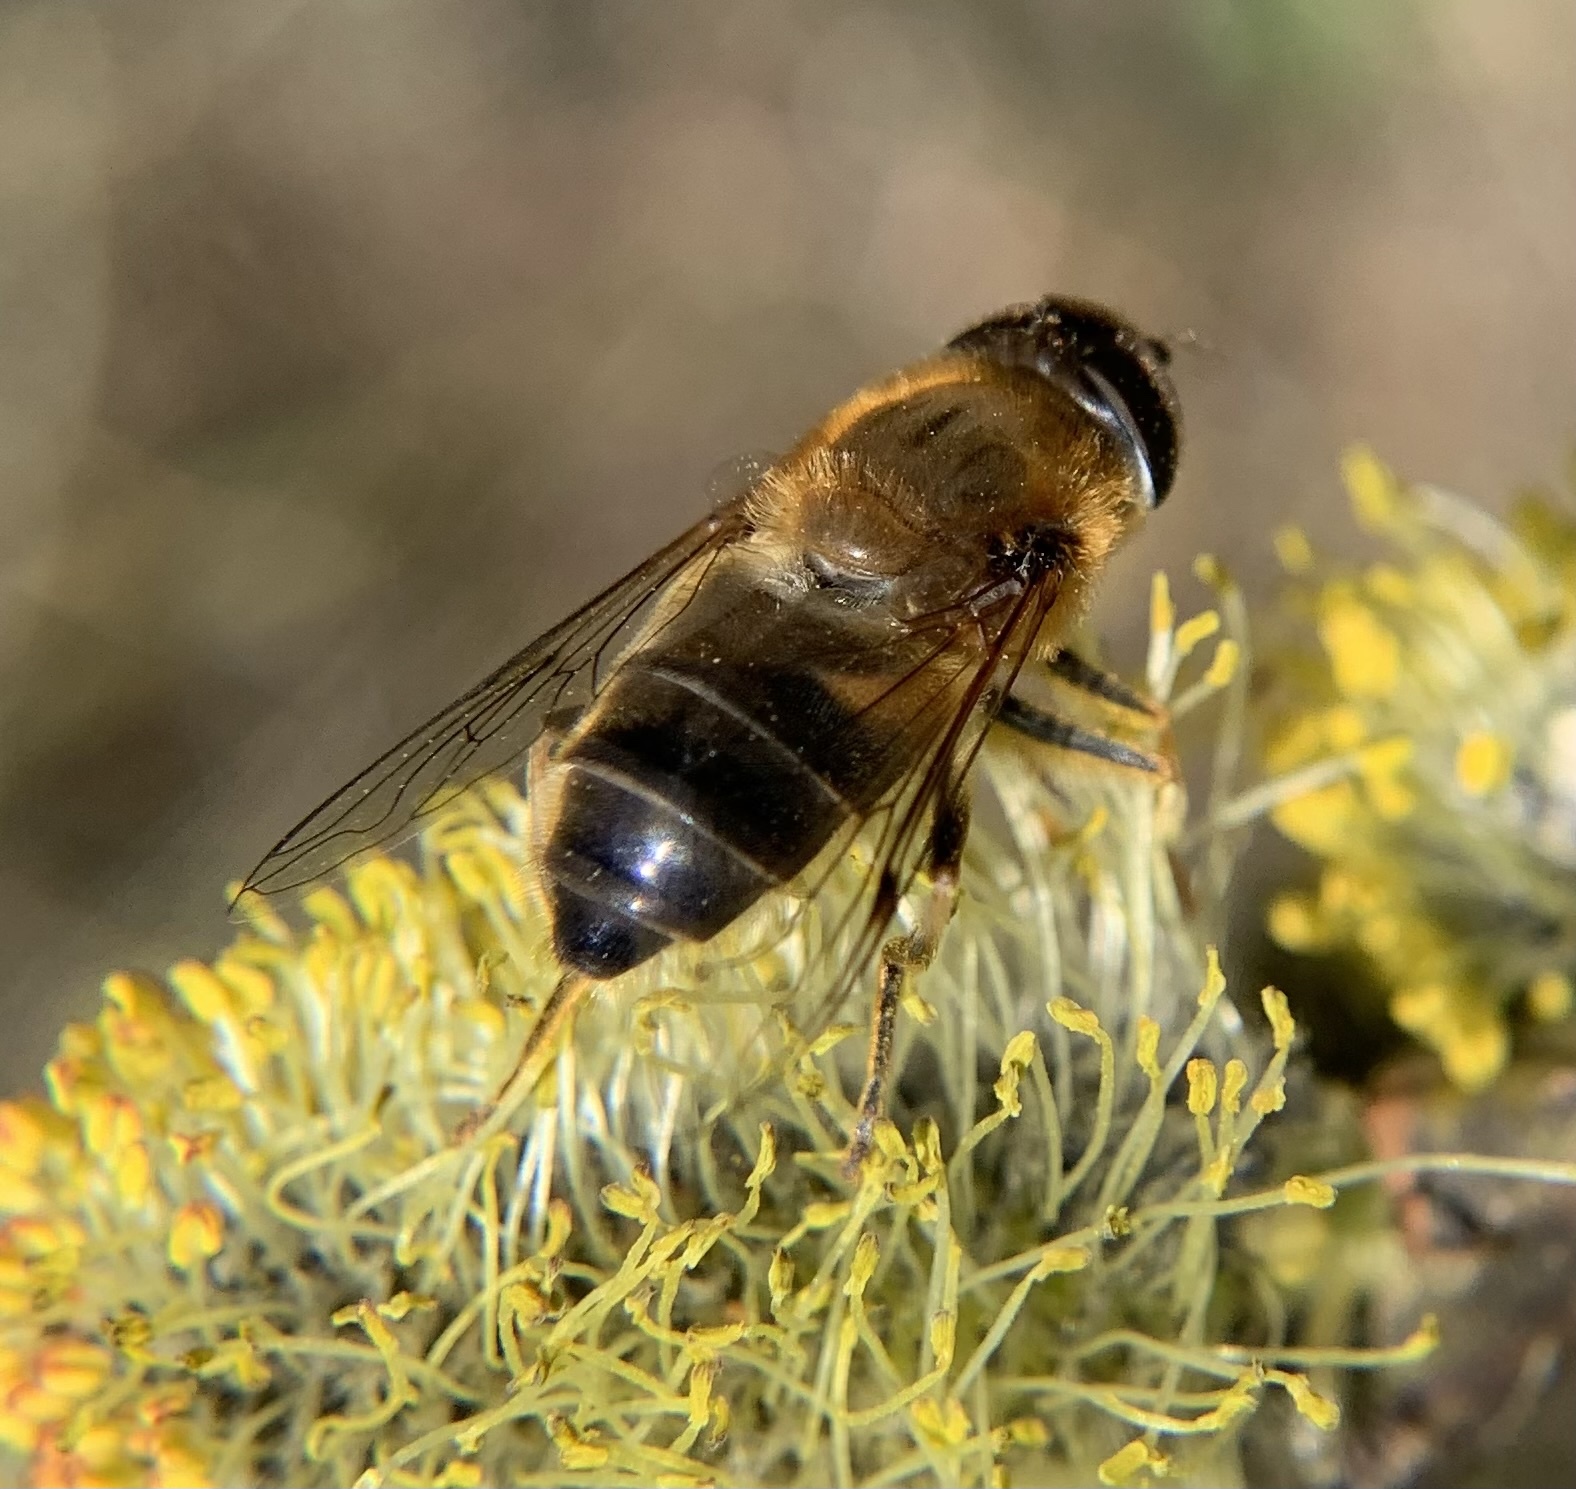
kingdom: Animalia
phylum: Arthropoda
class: Insecta
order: Diptera
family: Syrphidae
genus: Eristalis
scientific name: Eristalis pertinax
